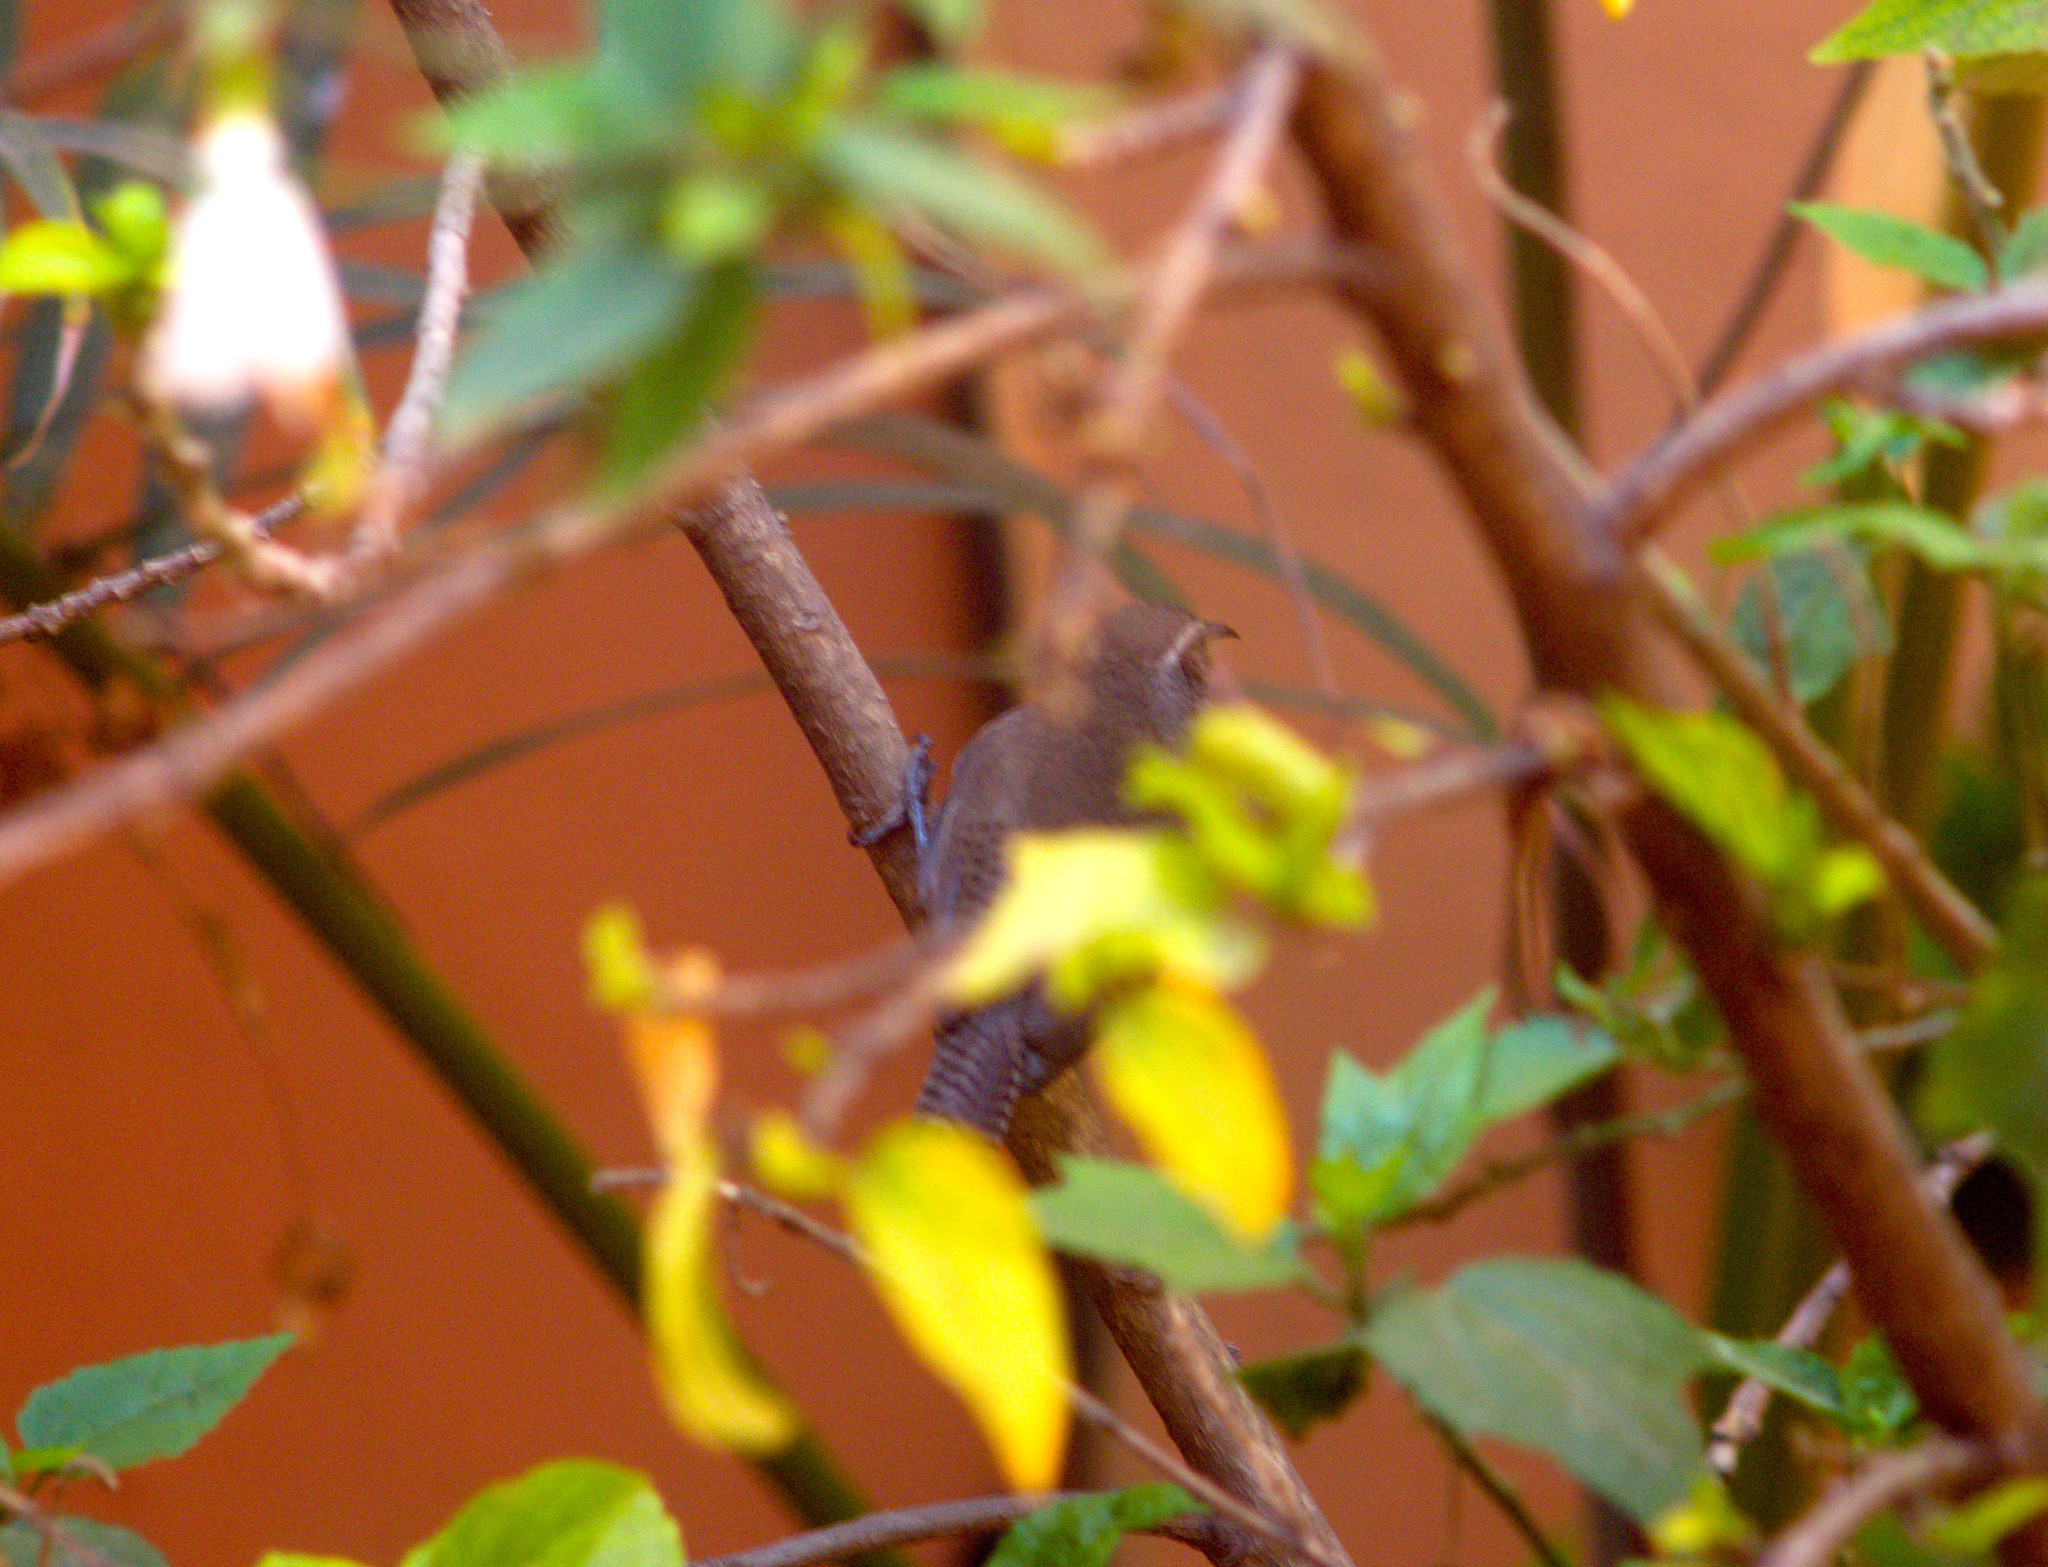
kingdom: Animalia
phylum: Chordata
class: Aves
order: Passeriformes
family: Troglodytidae
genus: Thryomanes
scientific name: Thryomanes bewickii
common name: Bewick's wren
